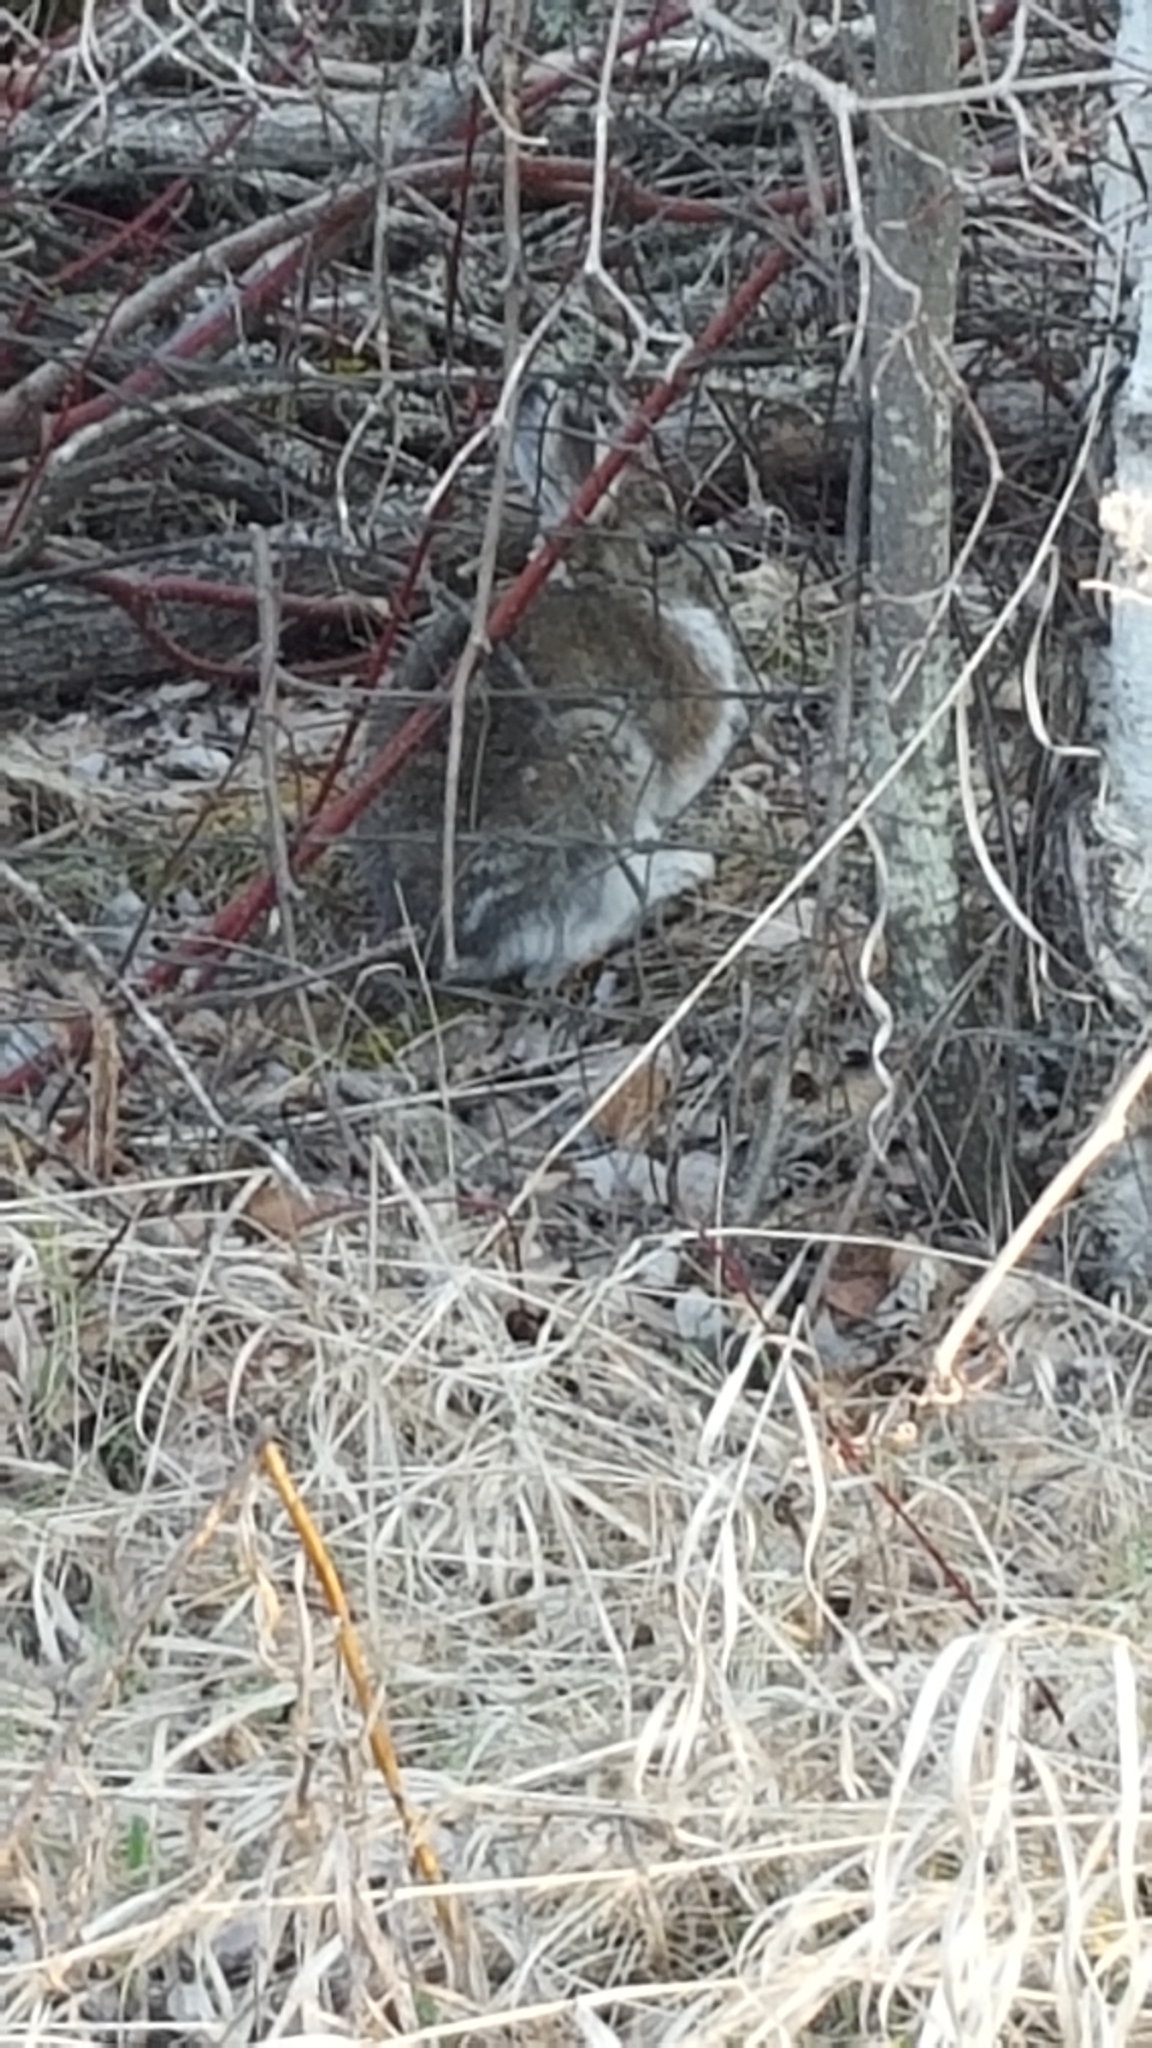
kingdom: Animalia
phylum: Chordata
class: Mammalia
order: Lagomorpha
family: Leporidae
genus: Lepus
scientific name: Lepus americanus
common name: Snowshoe hare
